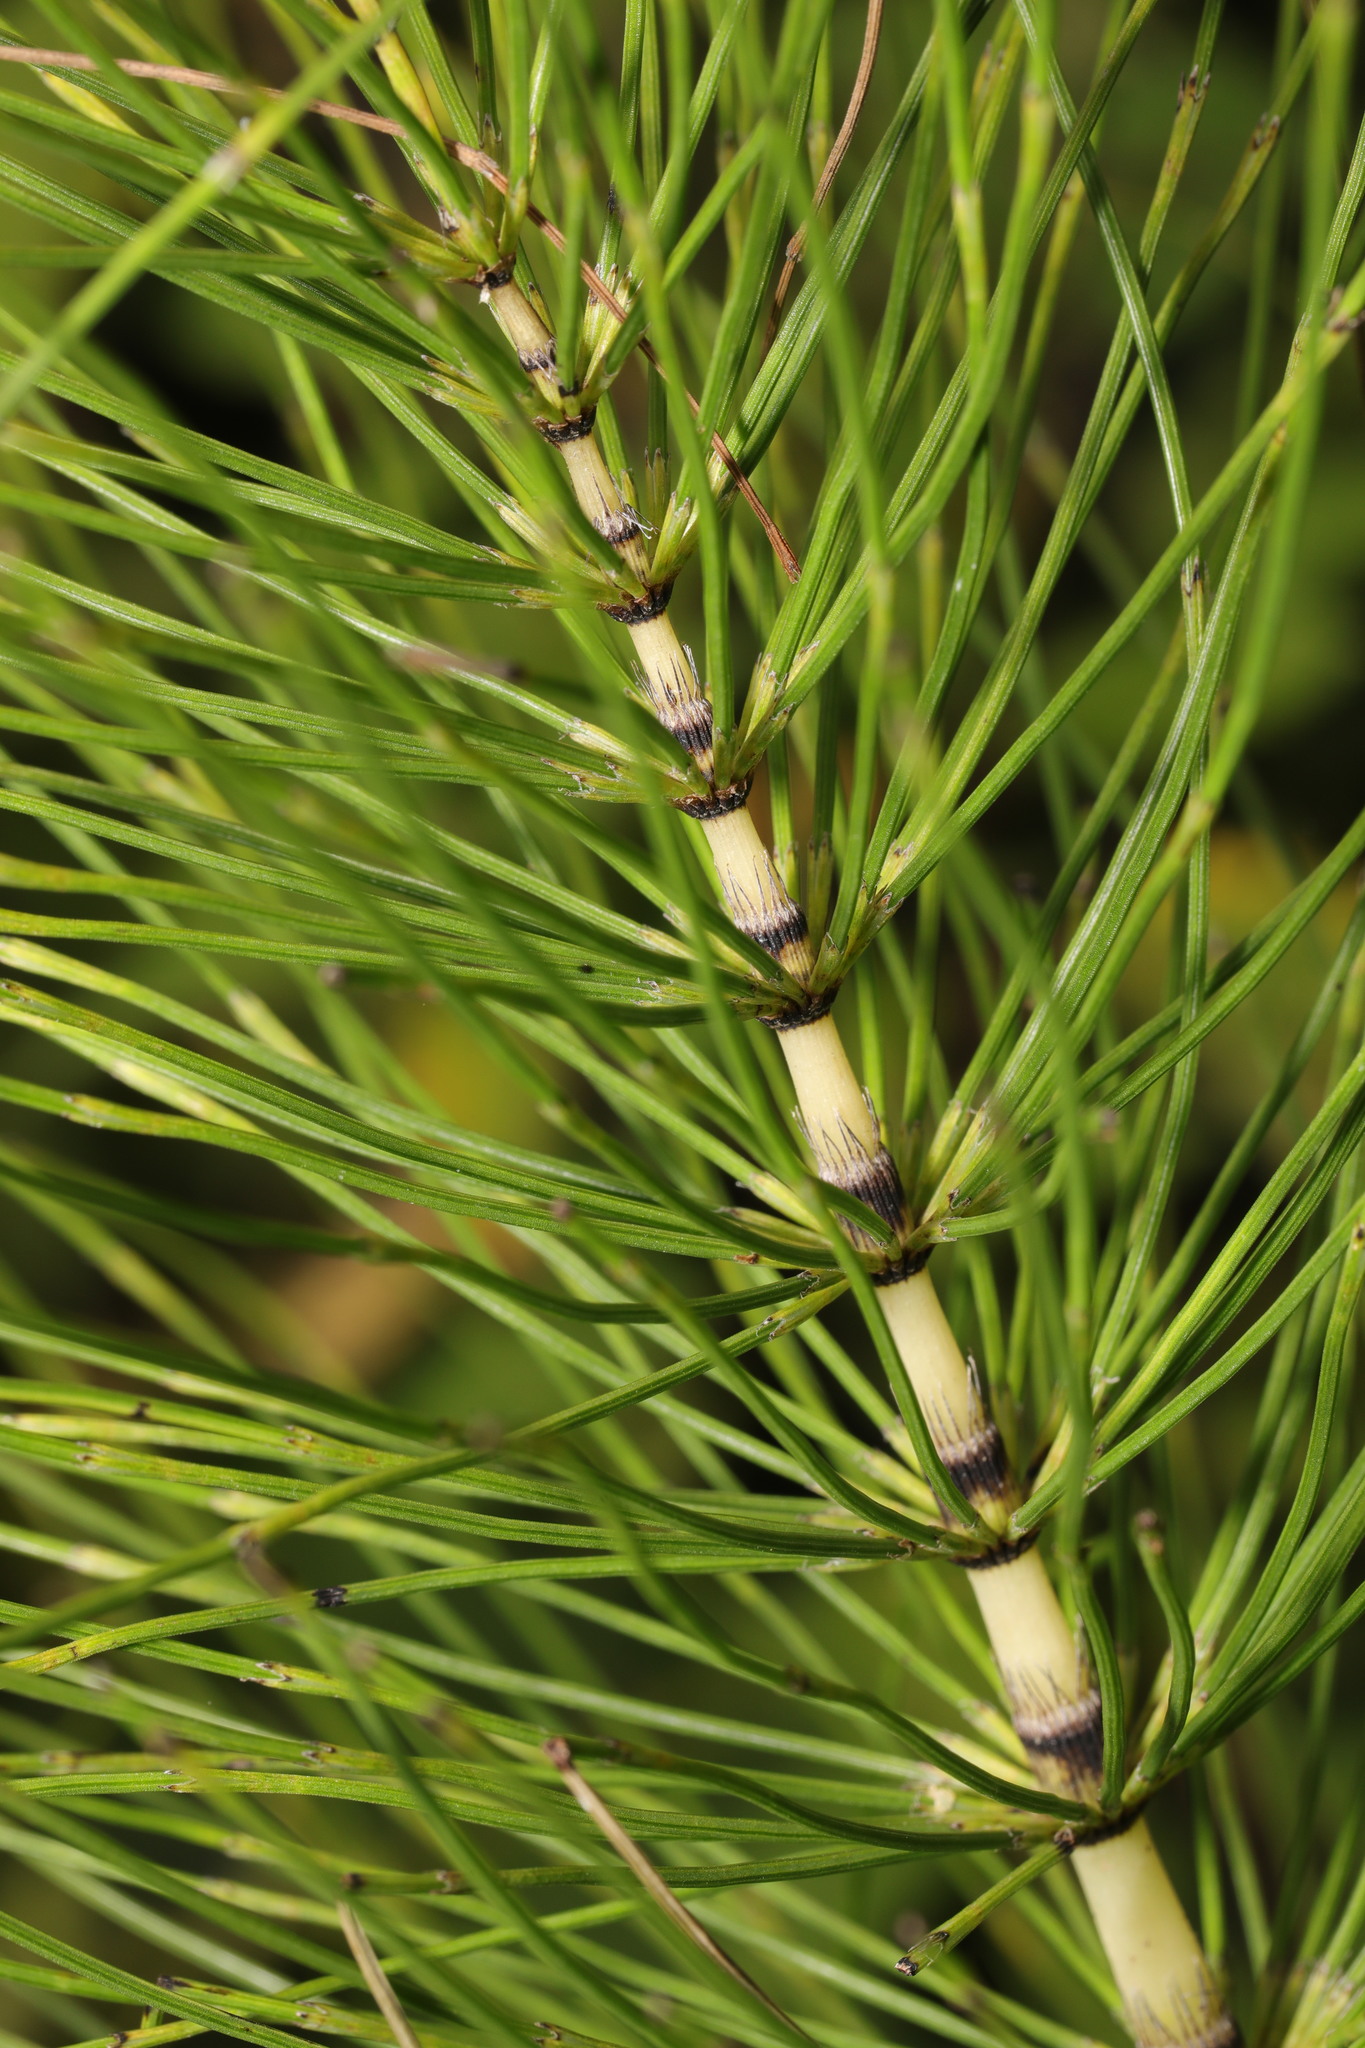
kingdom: Plantae
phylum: Tracheophyta
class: Polypodiopsida
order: Equisetales
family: Equisetaceae
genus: Equisetum
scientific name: Equisetum telmateia
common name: Great horsetail
